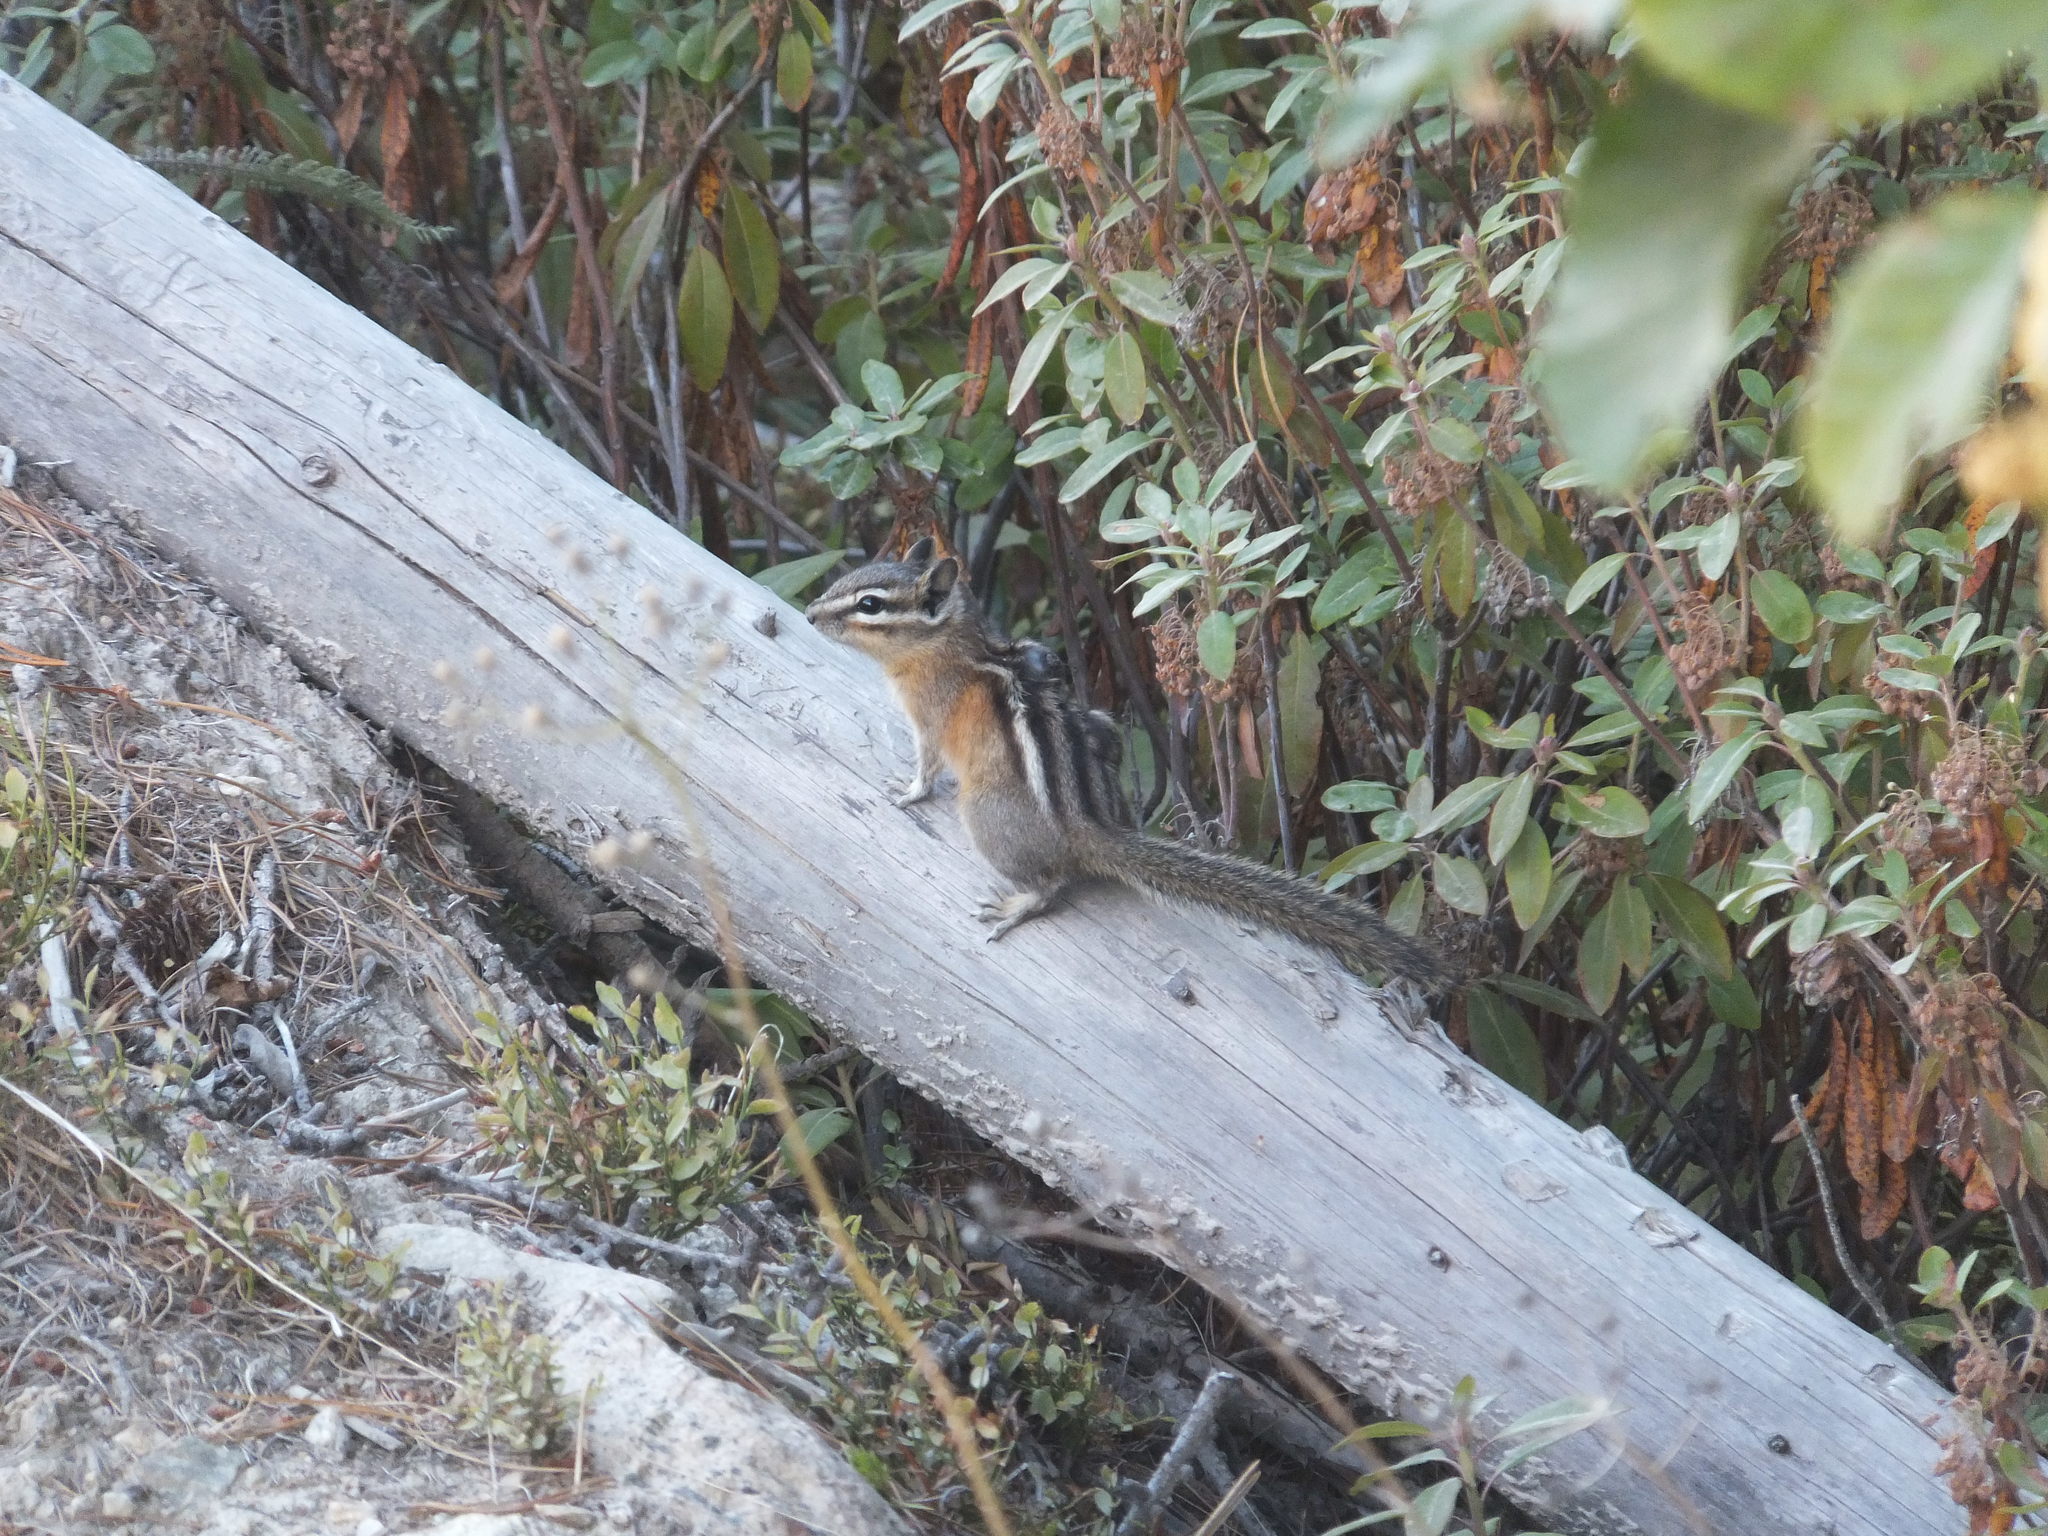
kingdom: Animalia
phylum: Chordata
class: Mammalia
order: Rodentia
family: Sciuridae
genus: Tamias
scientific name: Tamias amoenus
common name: Yellow-pine chipmunk
